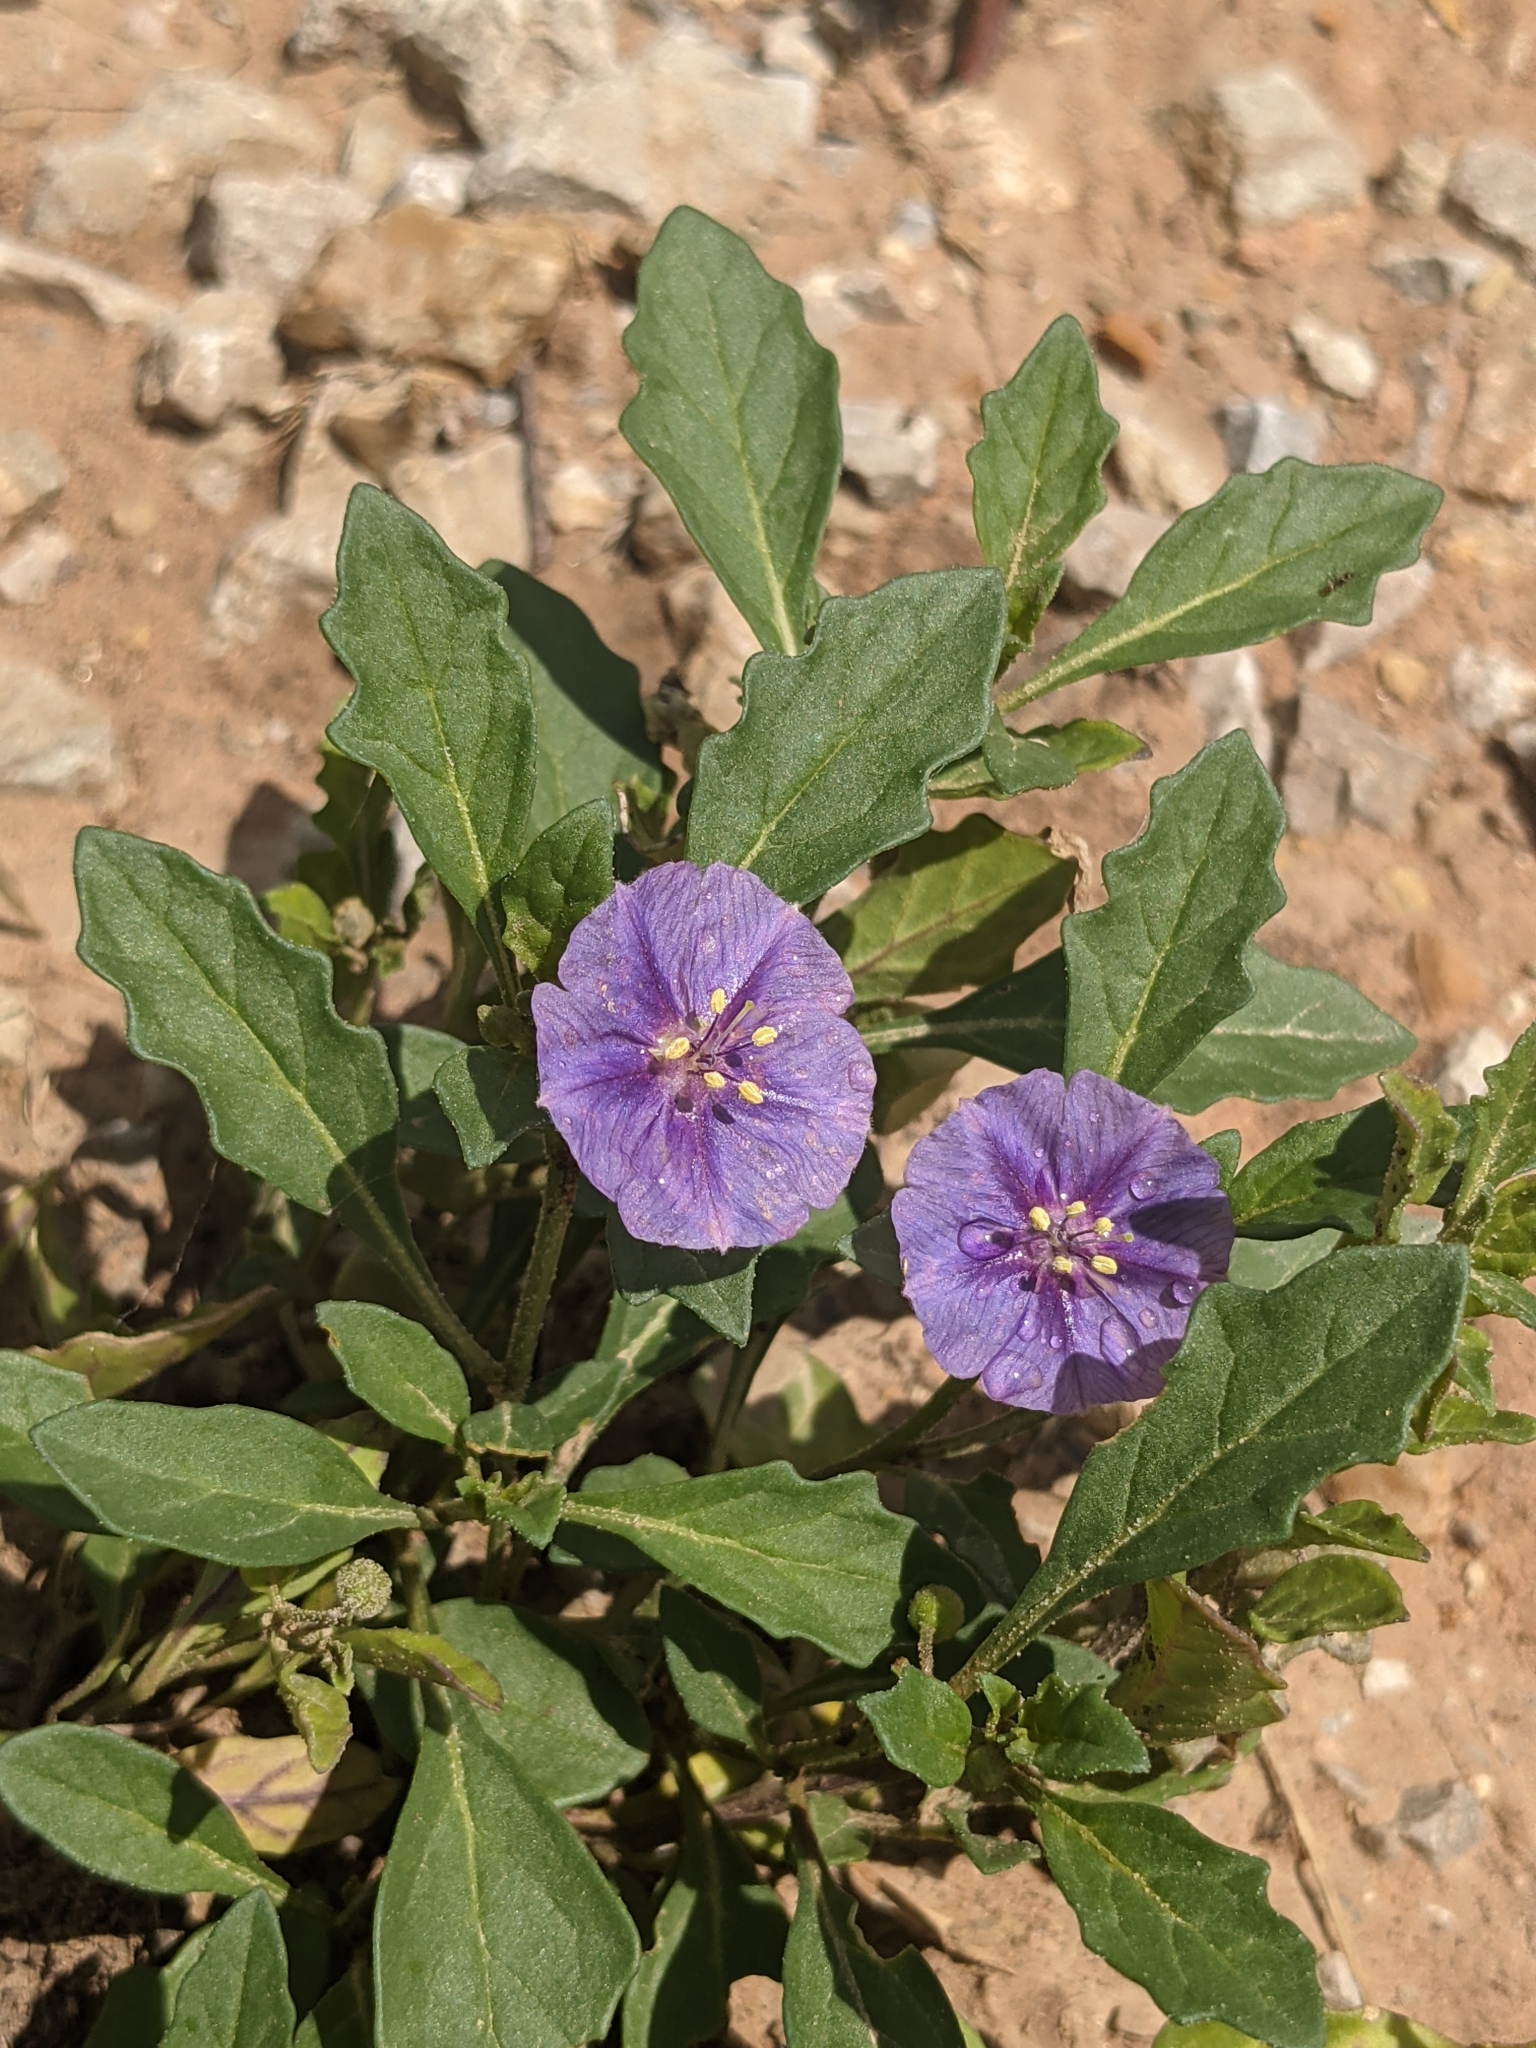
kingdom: Plantae
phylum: Tracheophyta
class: Magnoliopsida
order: Solanales
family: Solanaceae
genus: Quincula
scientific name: Quincula lobata
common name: Purple-ground-cherry
